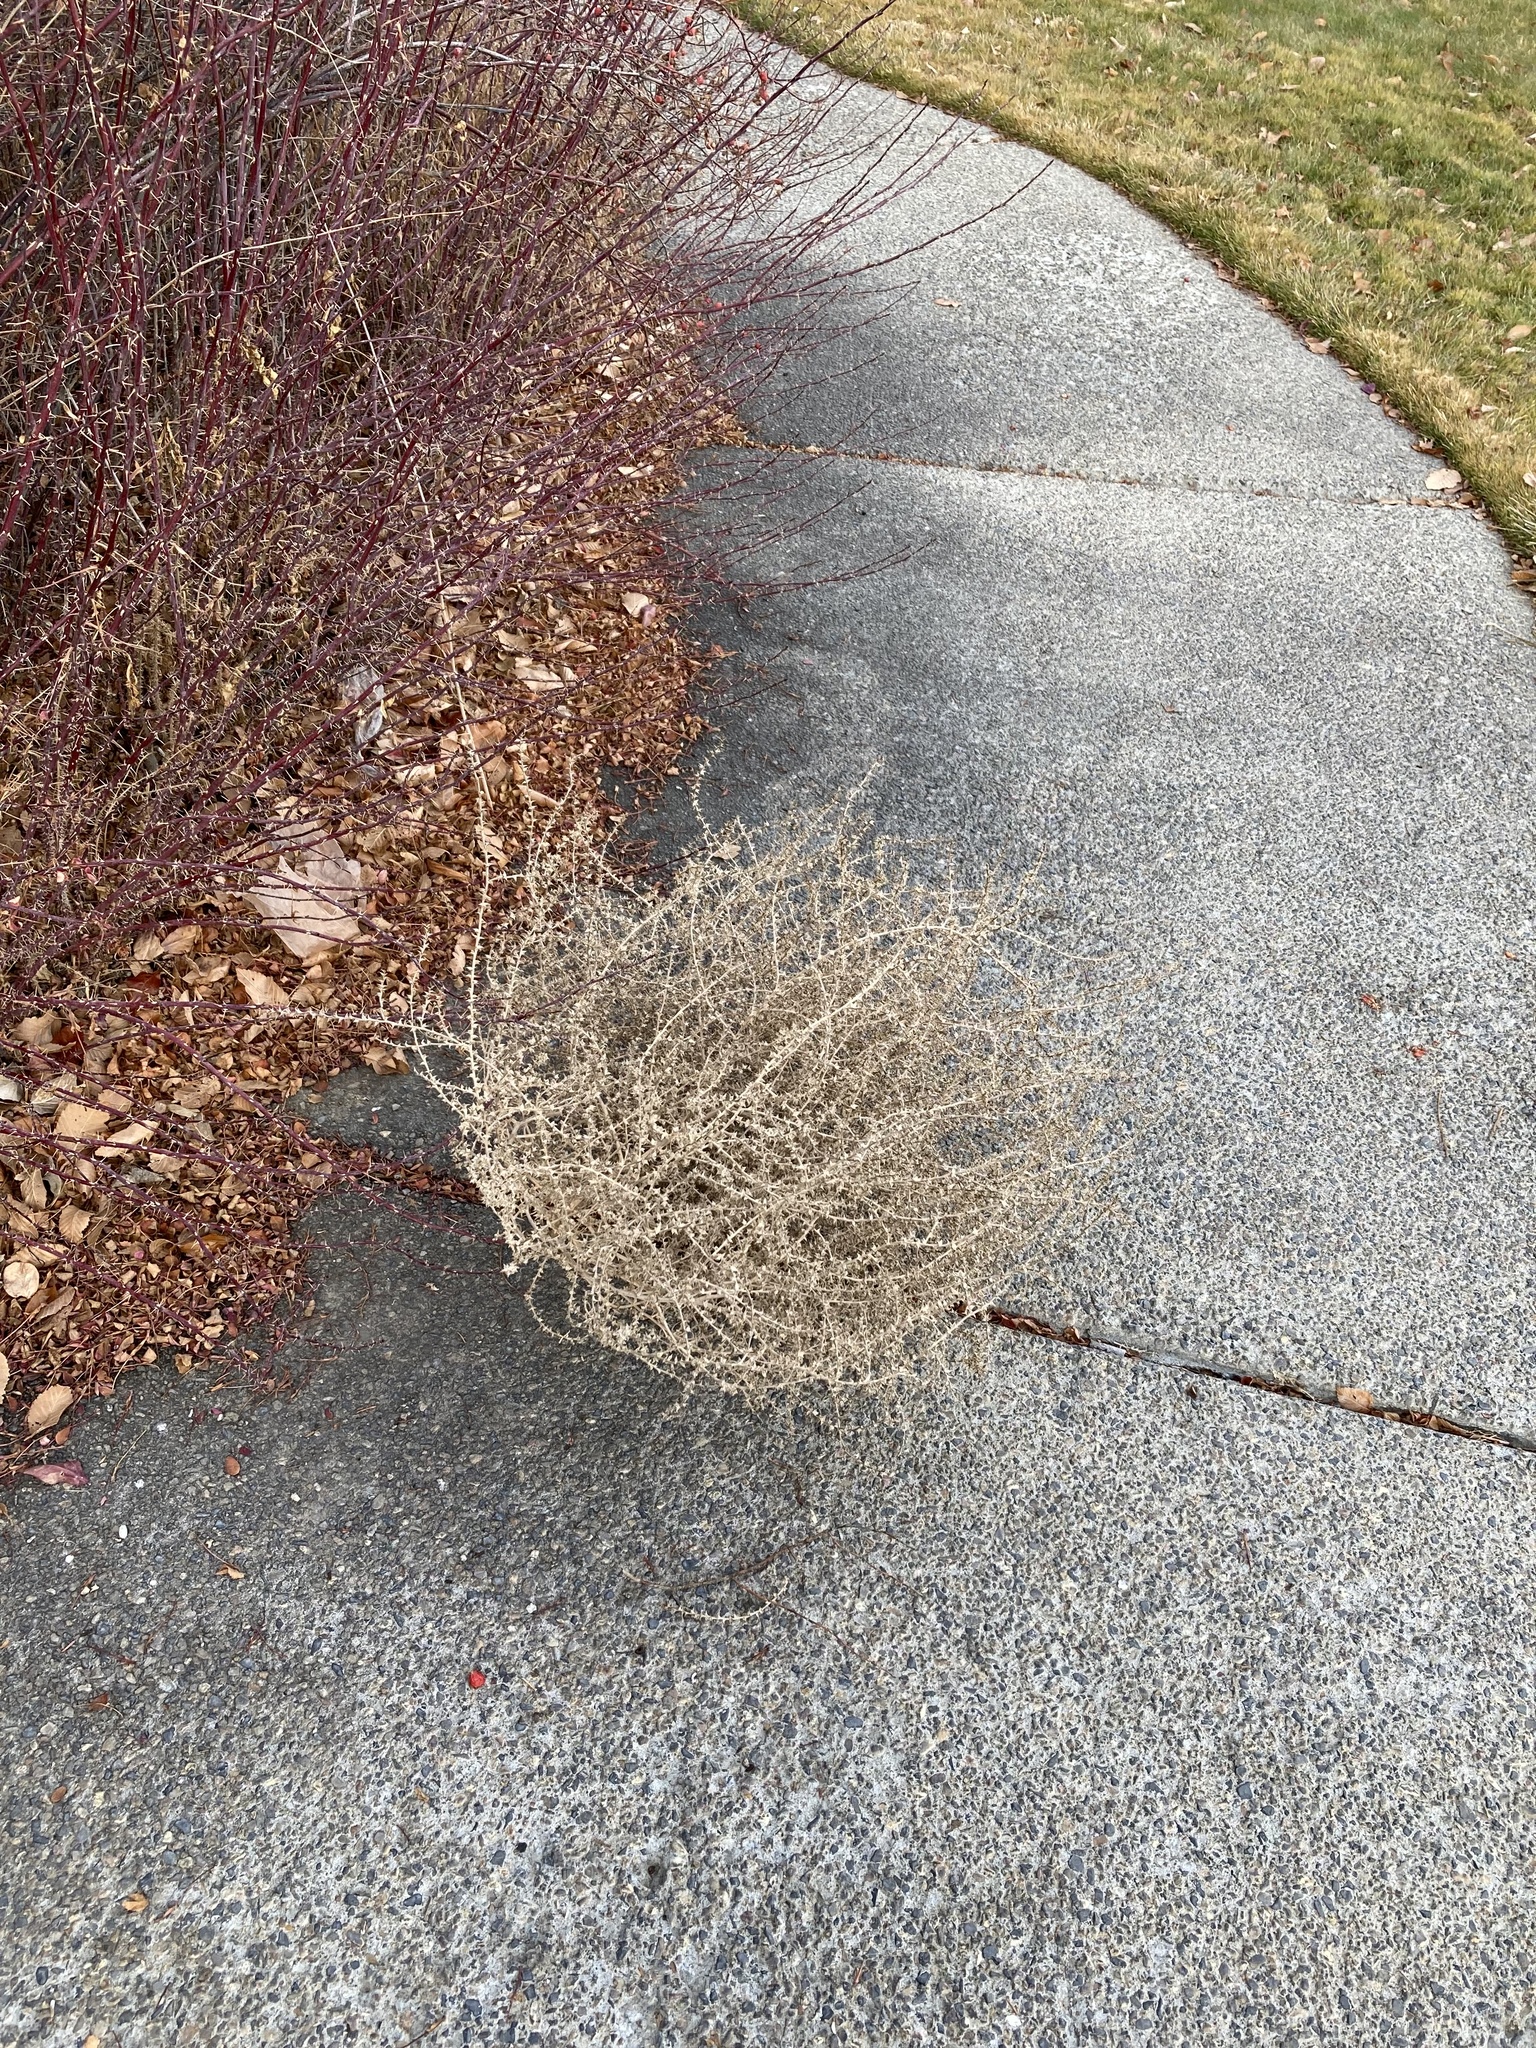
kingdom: Plantae
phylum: Tracheophyta
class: Magnoliopsida
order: Caryophyllales
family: Amaranthaceae
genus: Salsola
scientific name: Salsola tragus
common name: Prickly russian thistle
